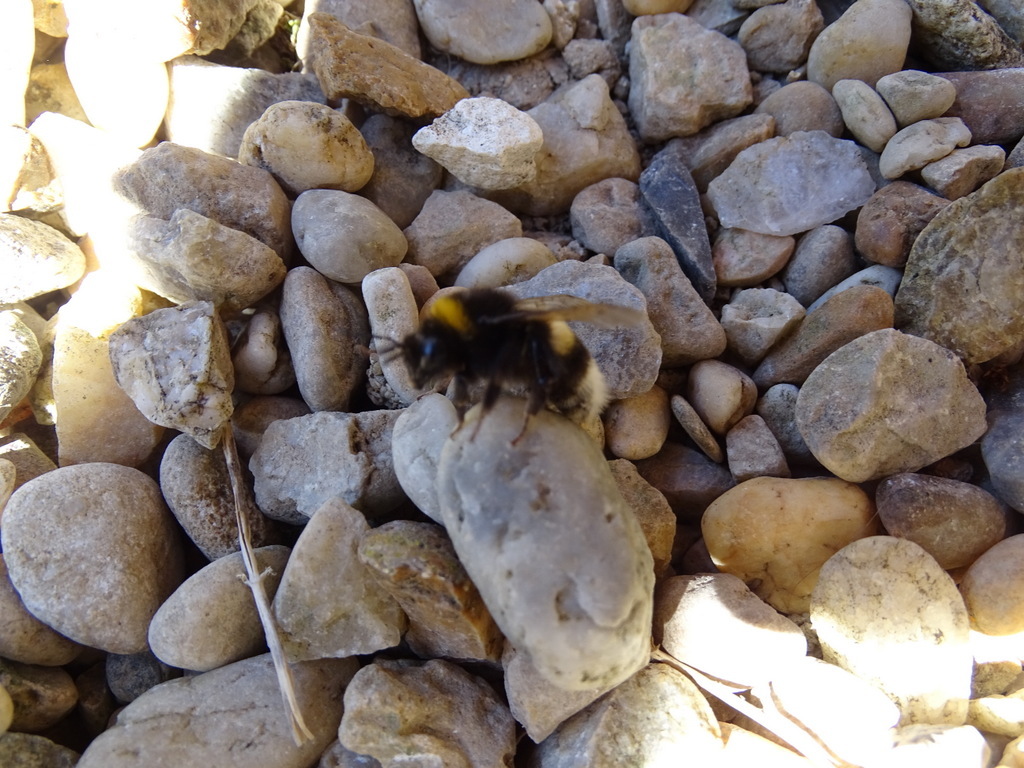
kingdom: Animalia
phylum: Arthropoda
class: Insecta
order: Hymenoptera
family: Apidae
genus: Bombus
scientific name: Bombus terrestris
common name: Buff-tailed bumblebee
